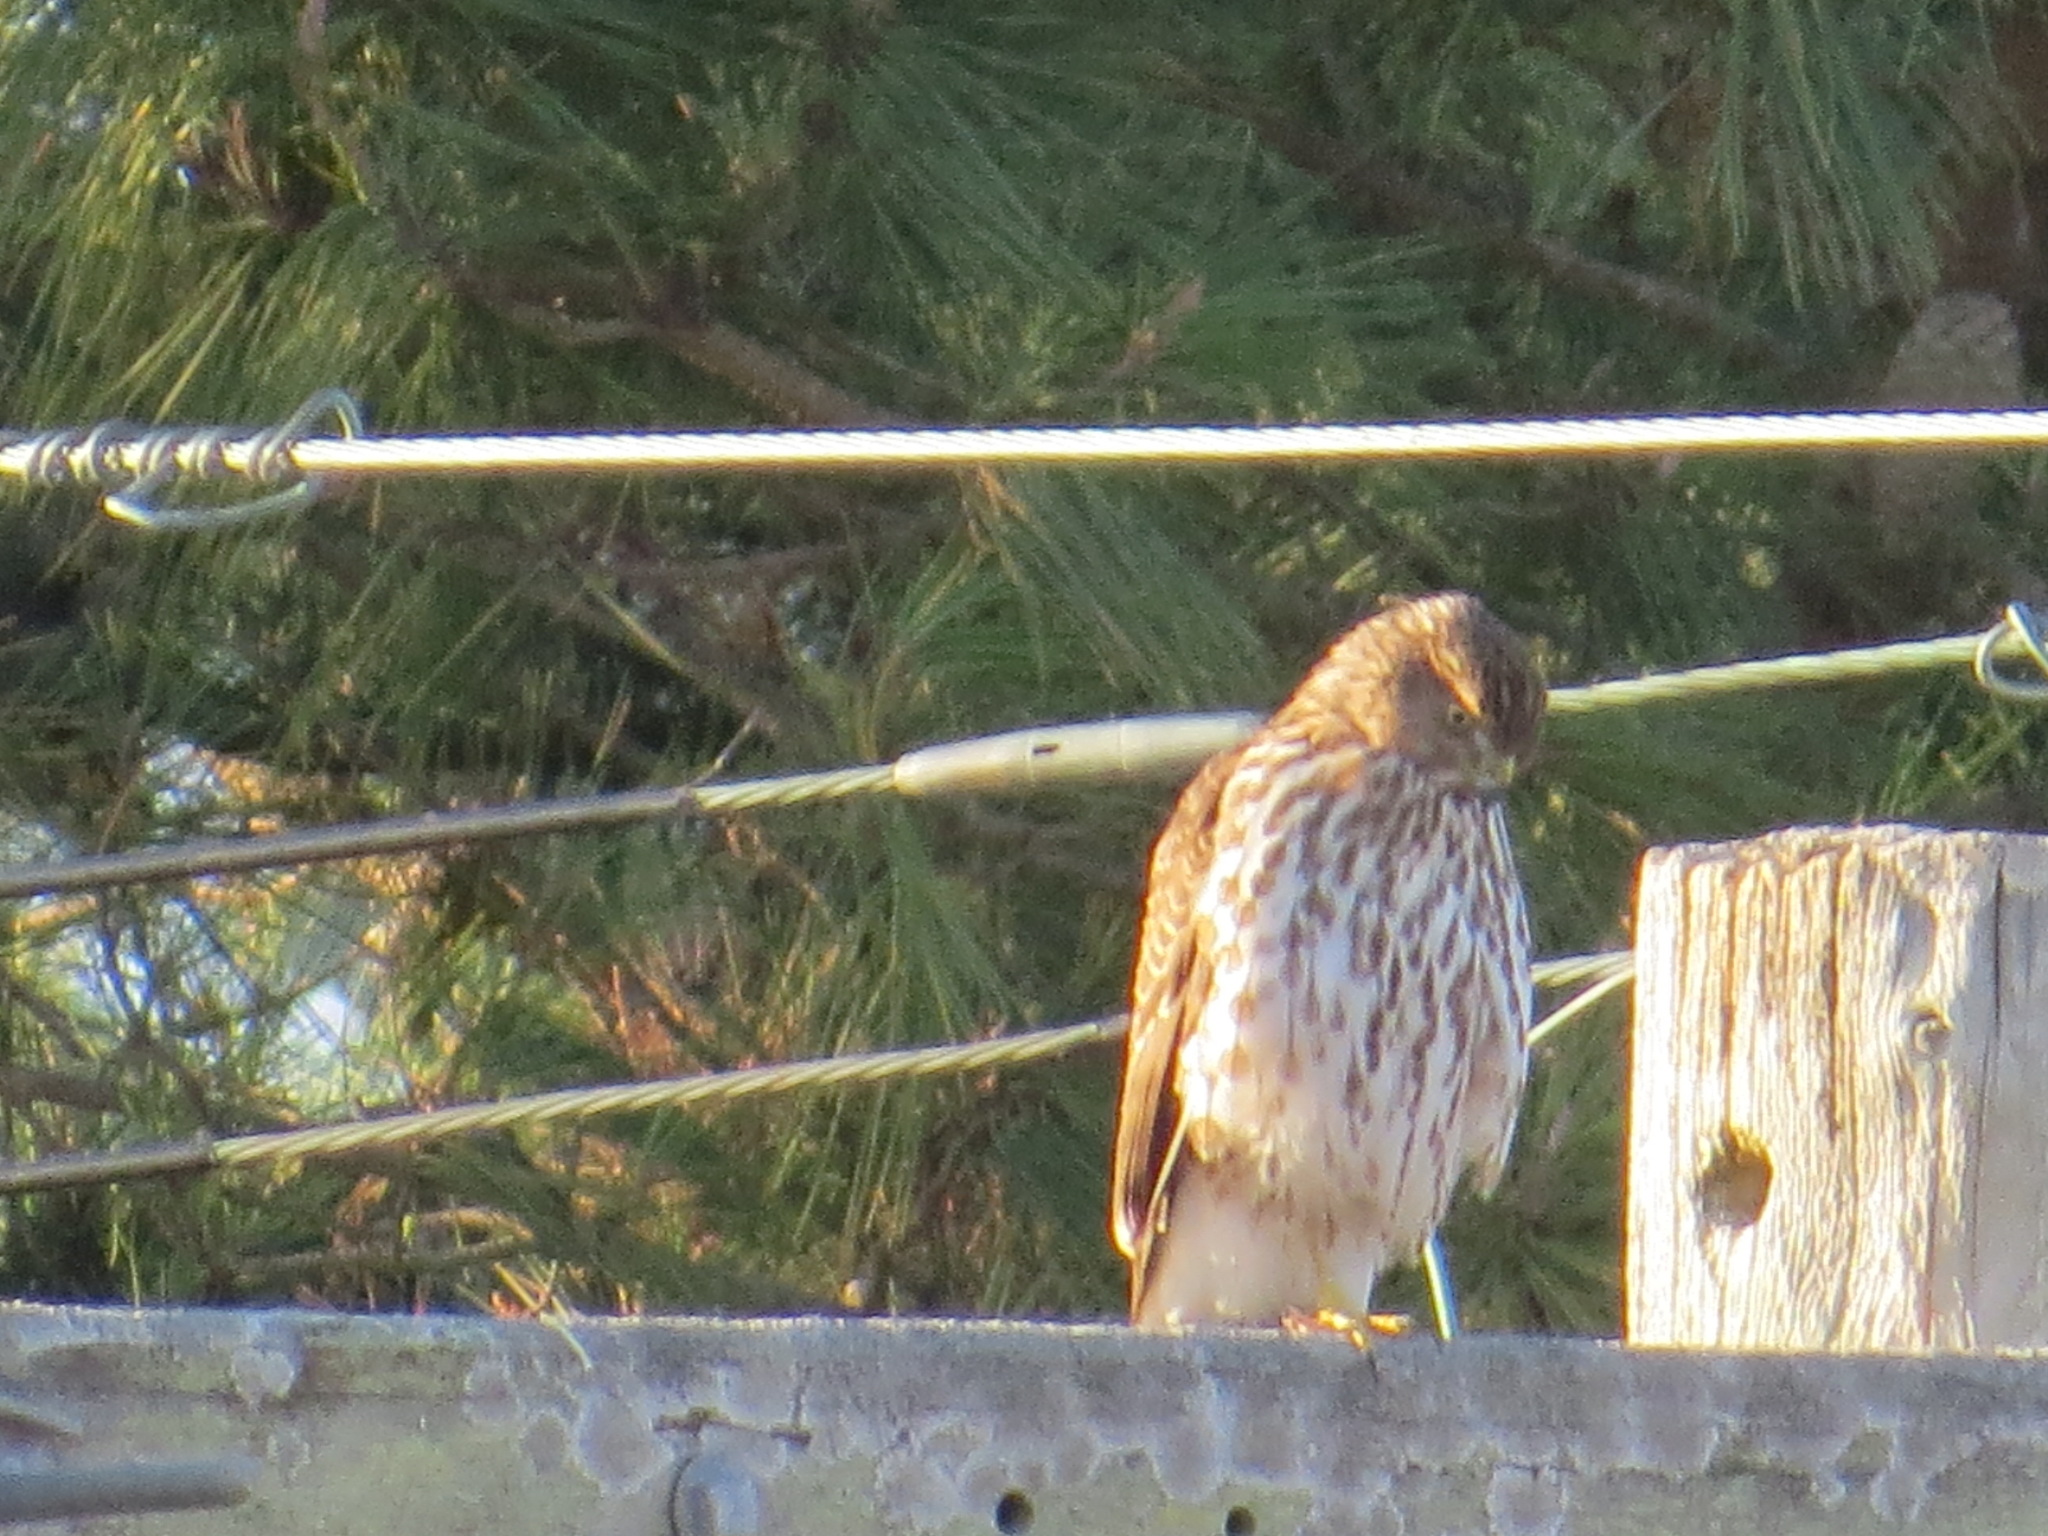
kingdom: Animalia
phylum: Chordata
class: Aves
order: Accipitriformes
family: Accipitridae
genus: Accipiter
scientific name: Accipiter cooperii
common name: Cooper's hawk
